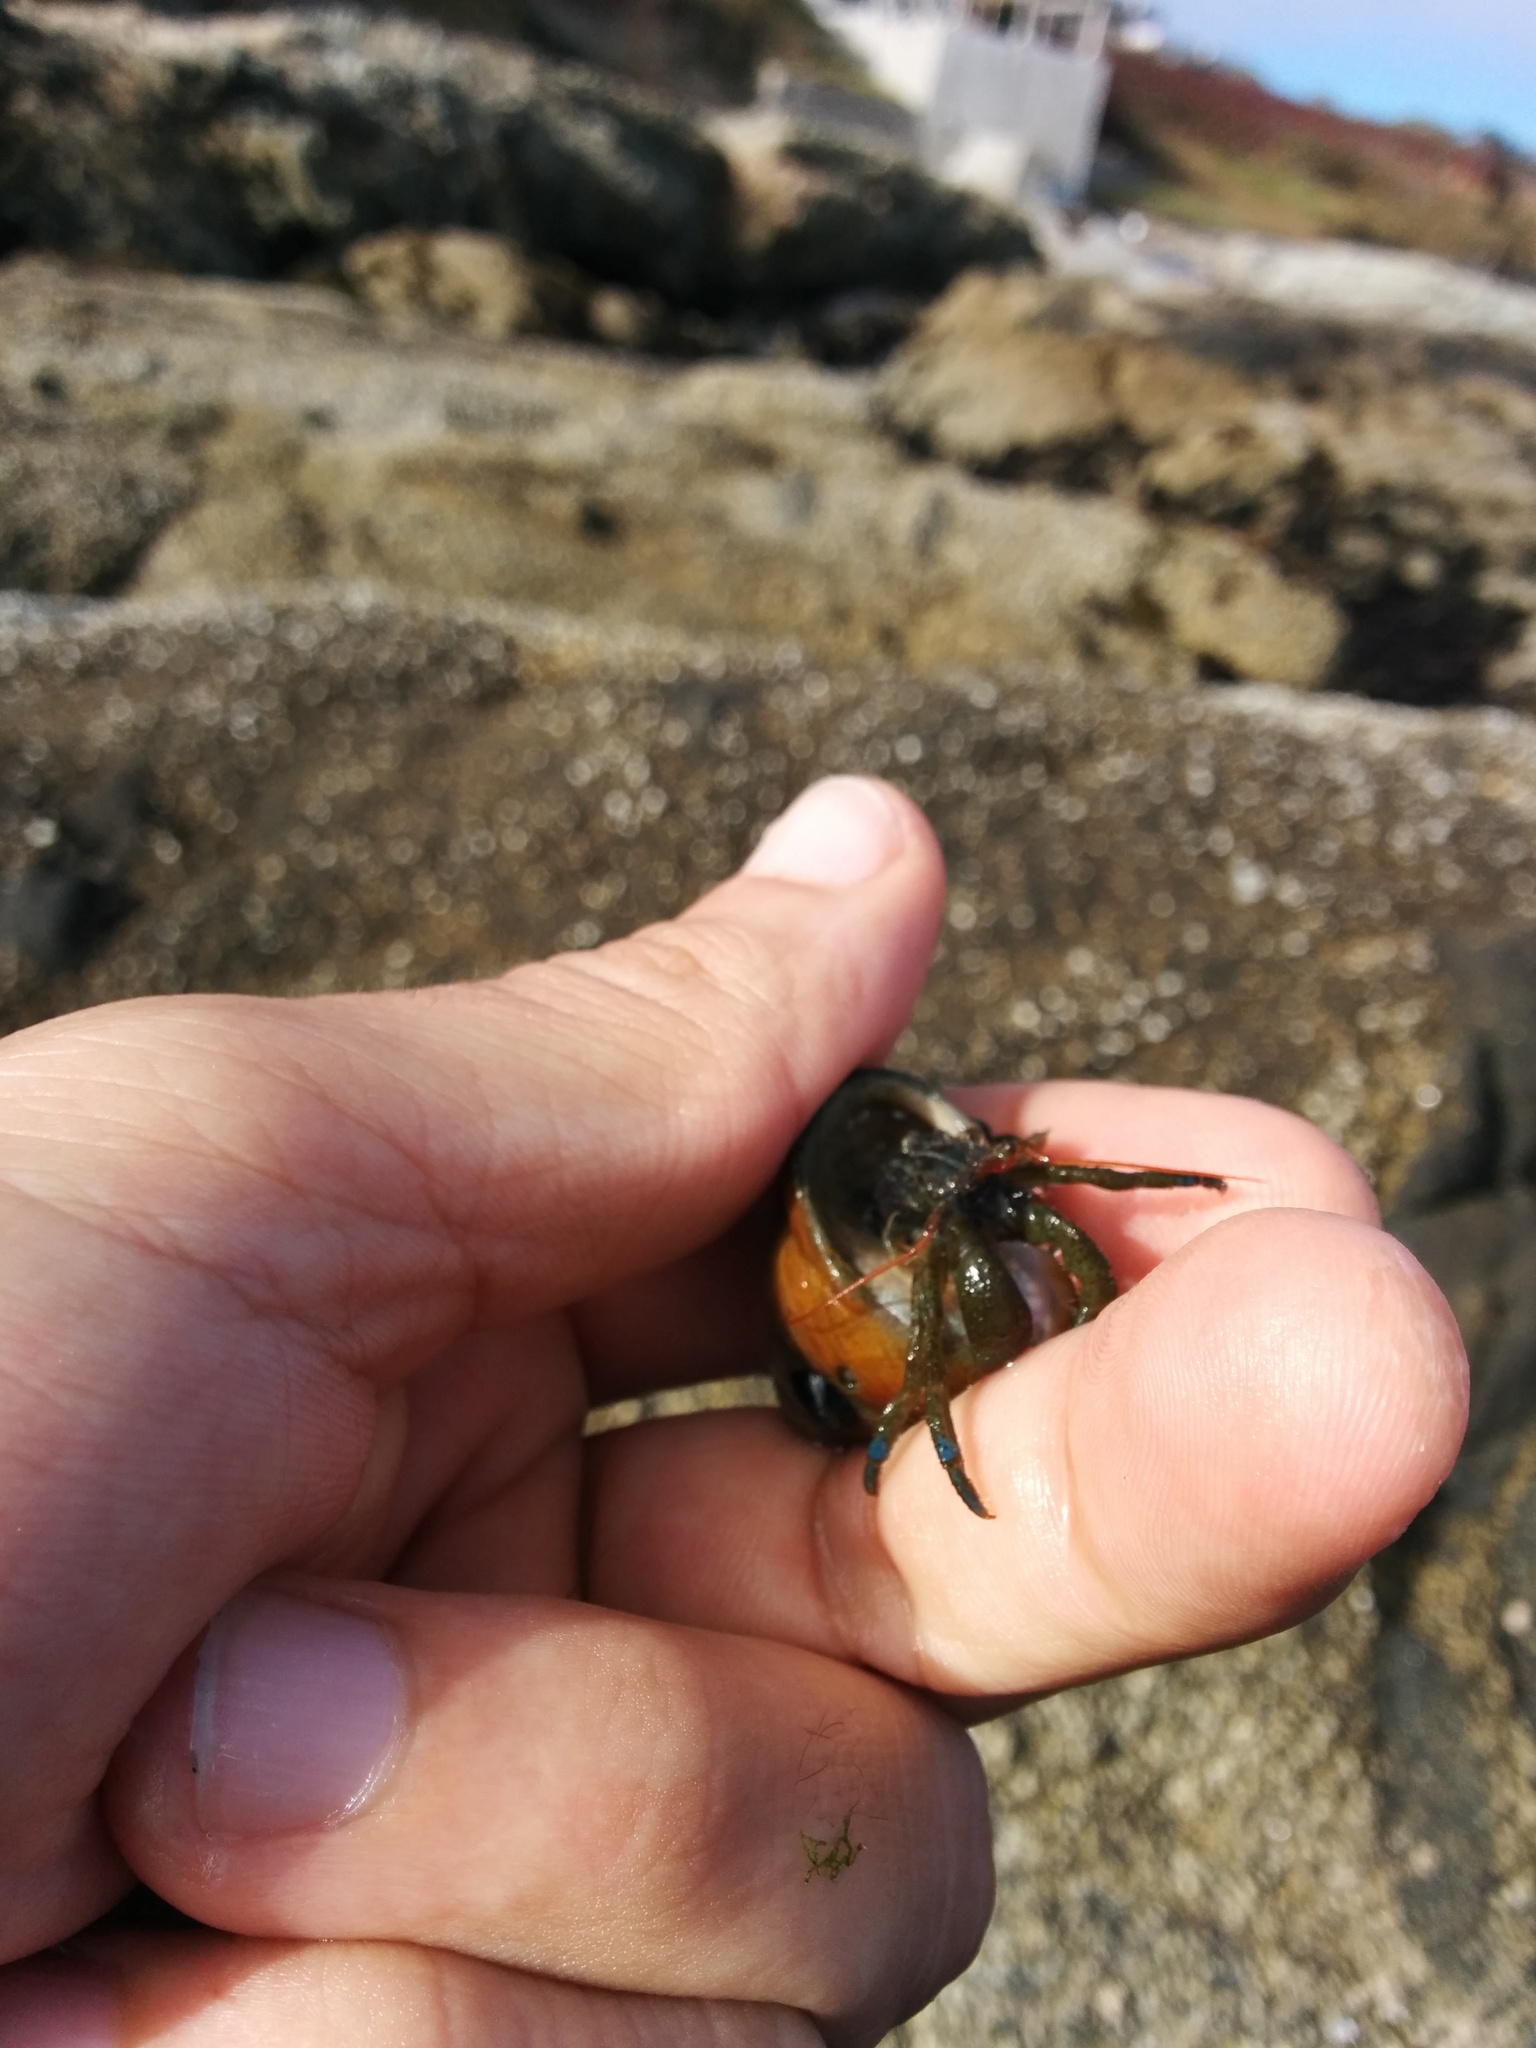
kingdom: Animalia
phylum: Arthropoda
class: Malacostraca
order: Decapoda
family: Paguridae
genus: Pagurus
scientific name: Pagurus samuelis
